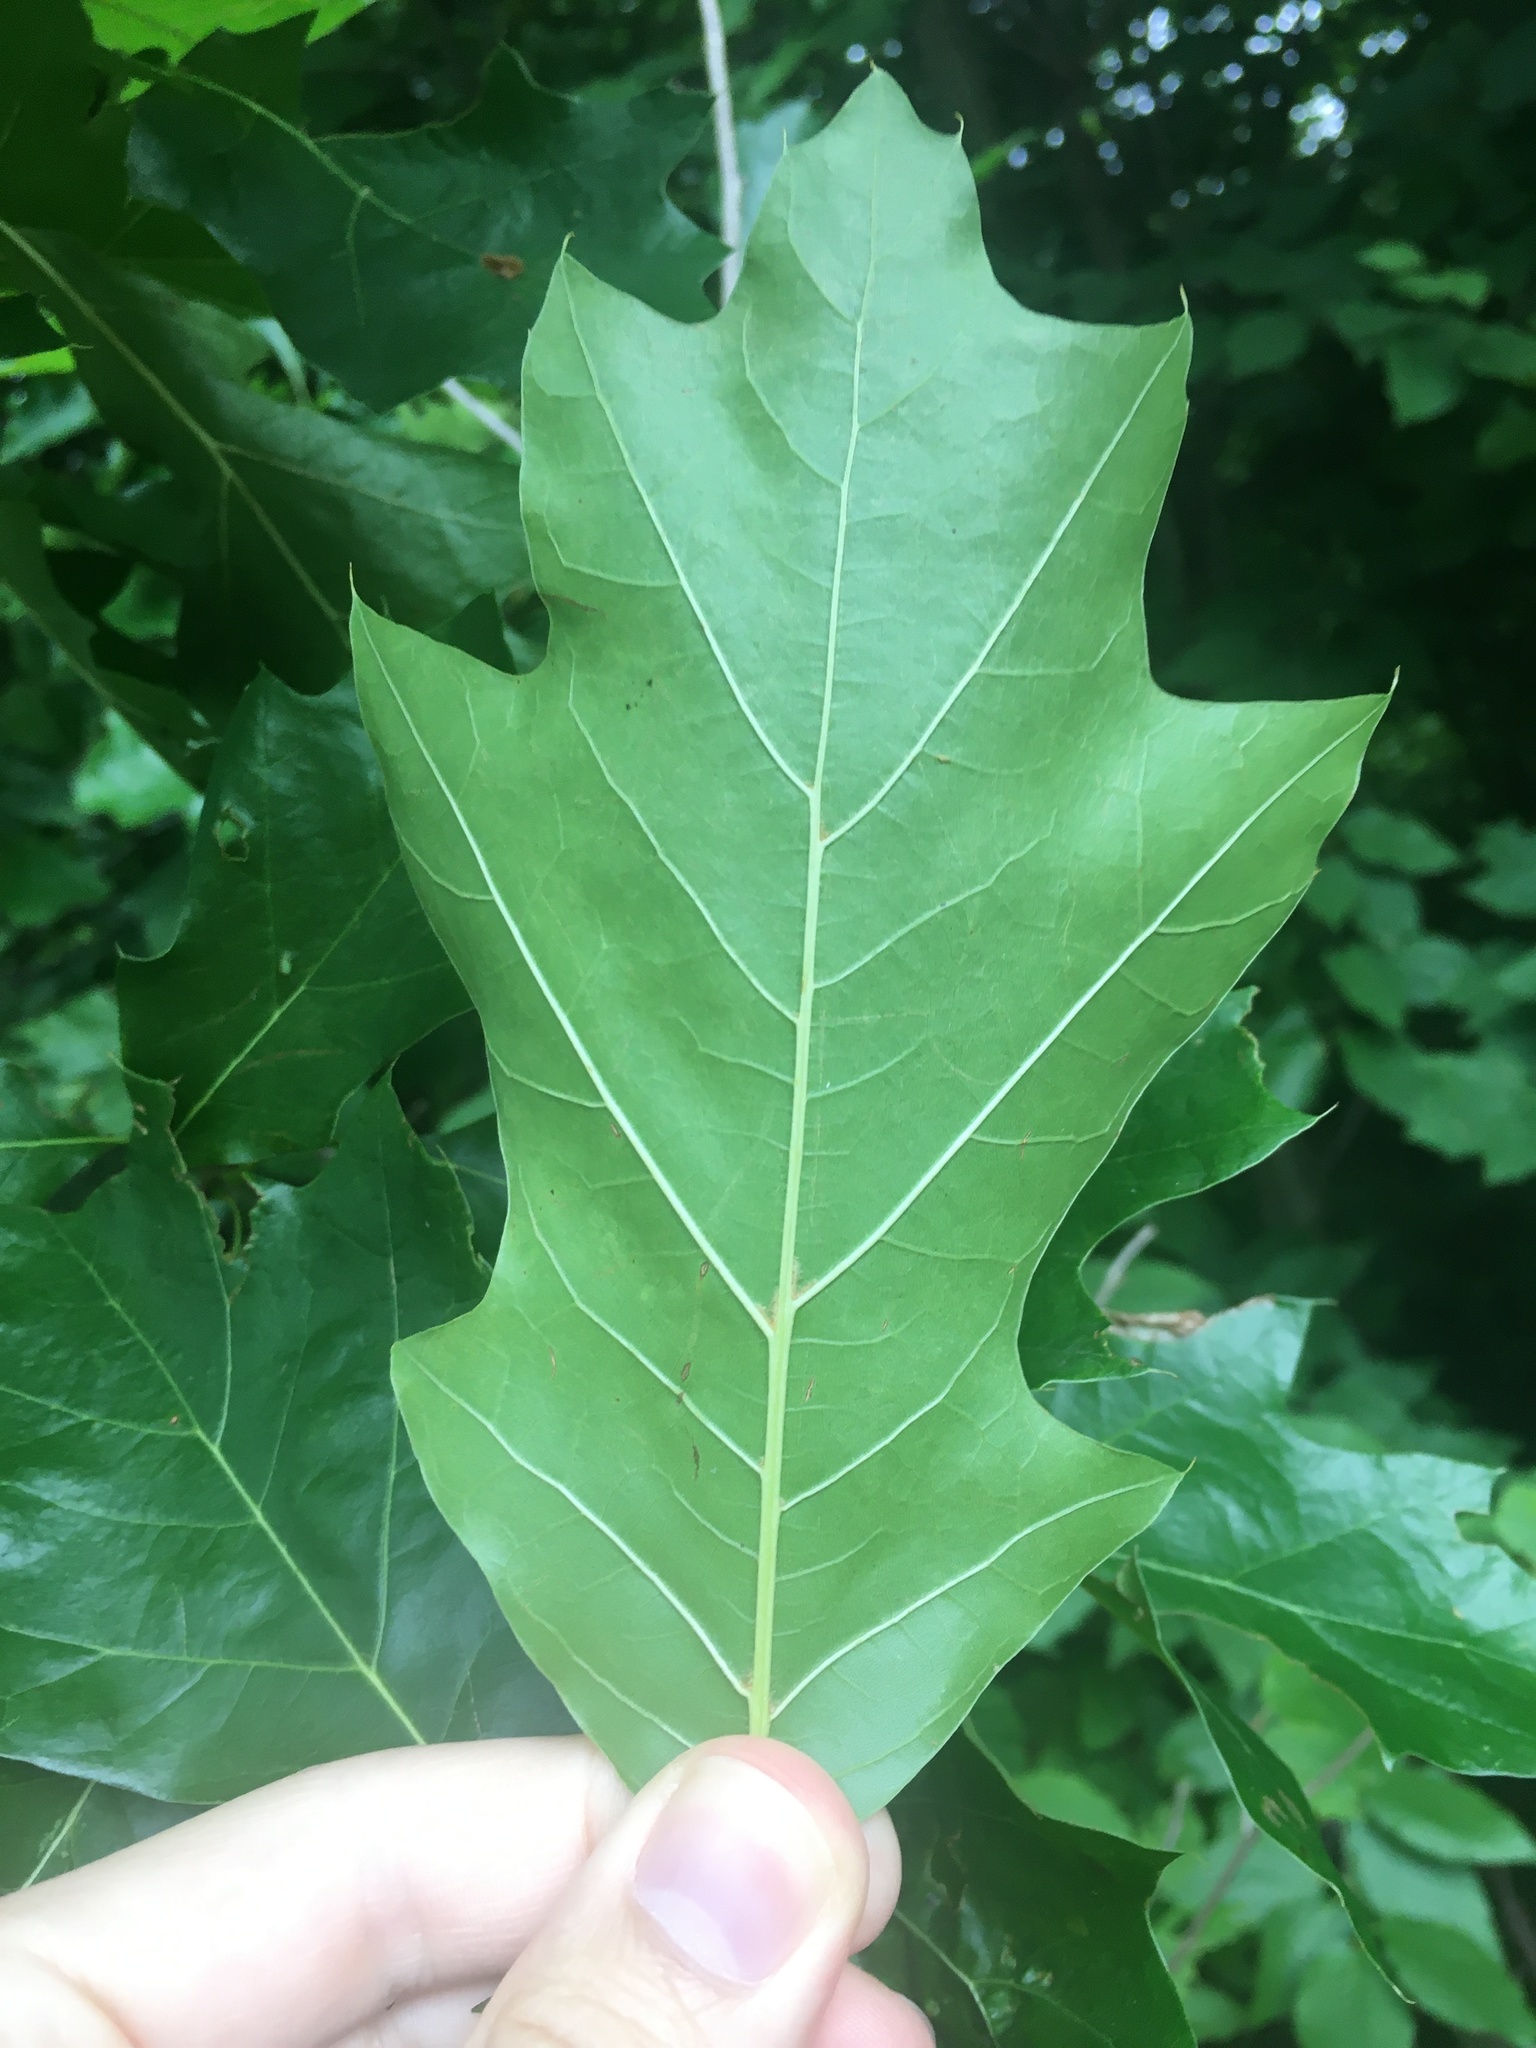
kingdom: Plantae
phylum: Tracheophyta
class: Magnoliopsida
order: Fagales
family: Fagaceae
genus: Quercus
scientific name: Quercus rubra
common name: Red oak
